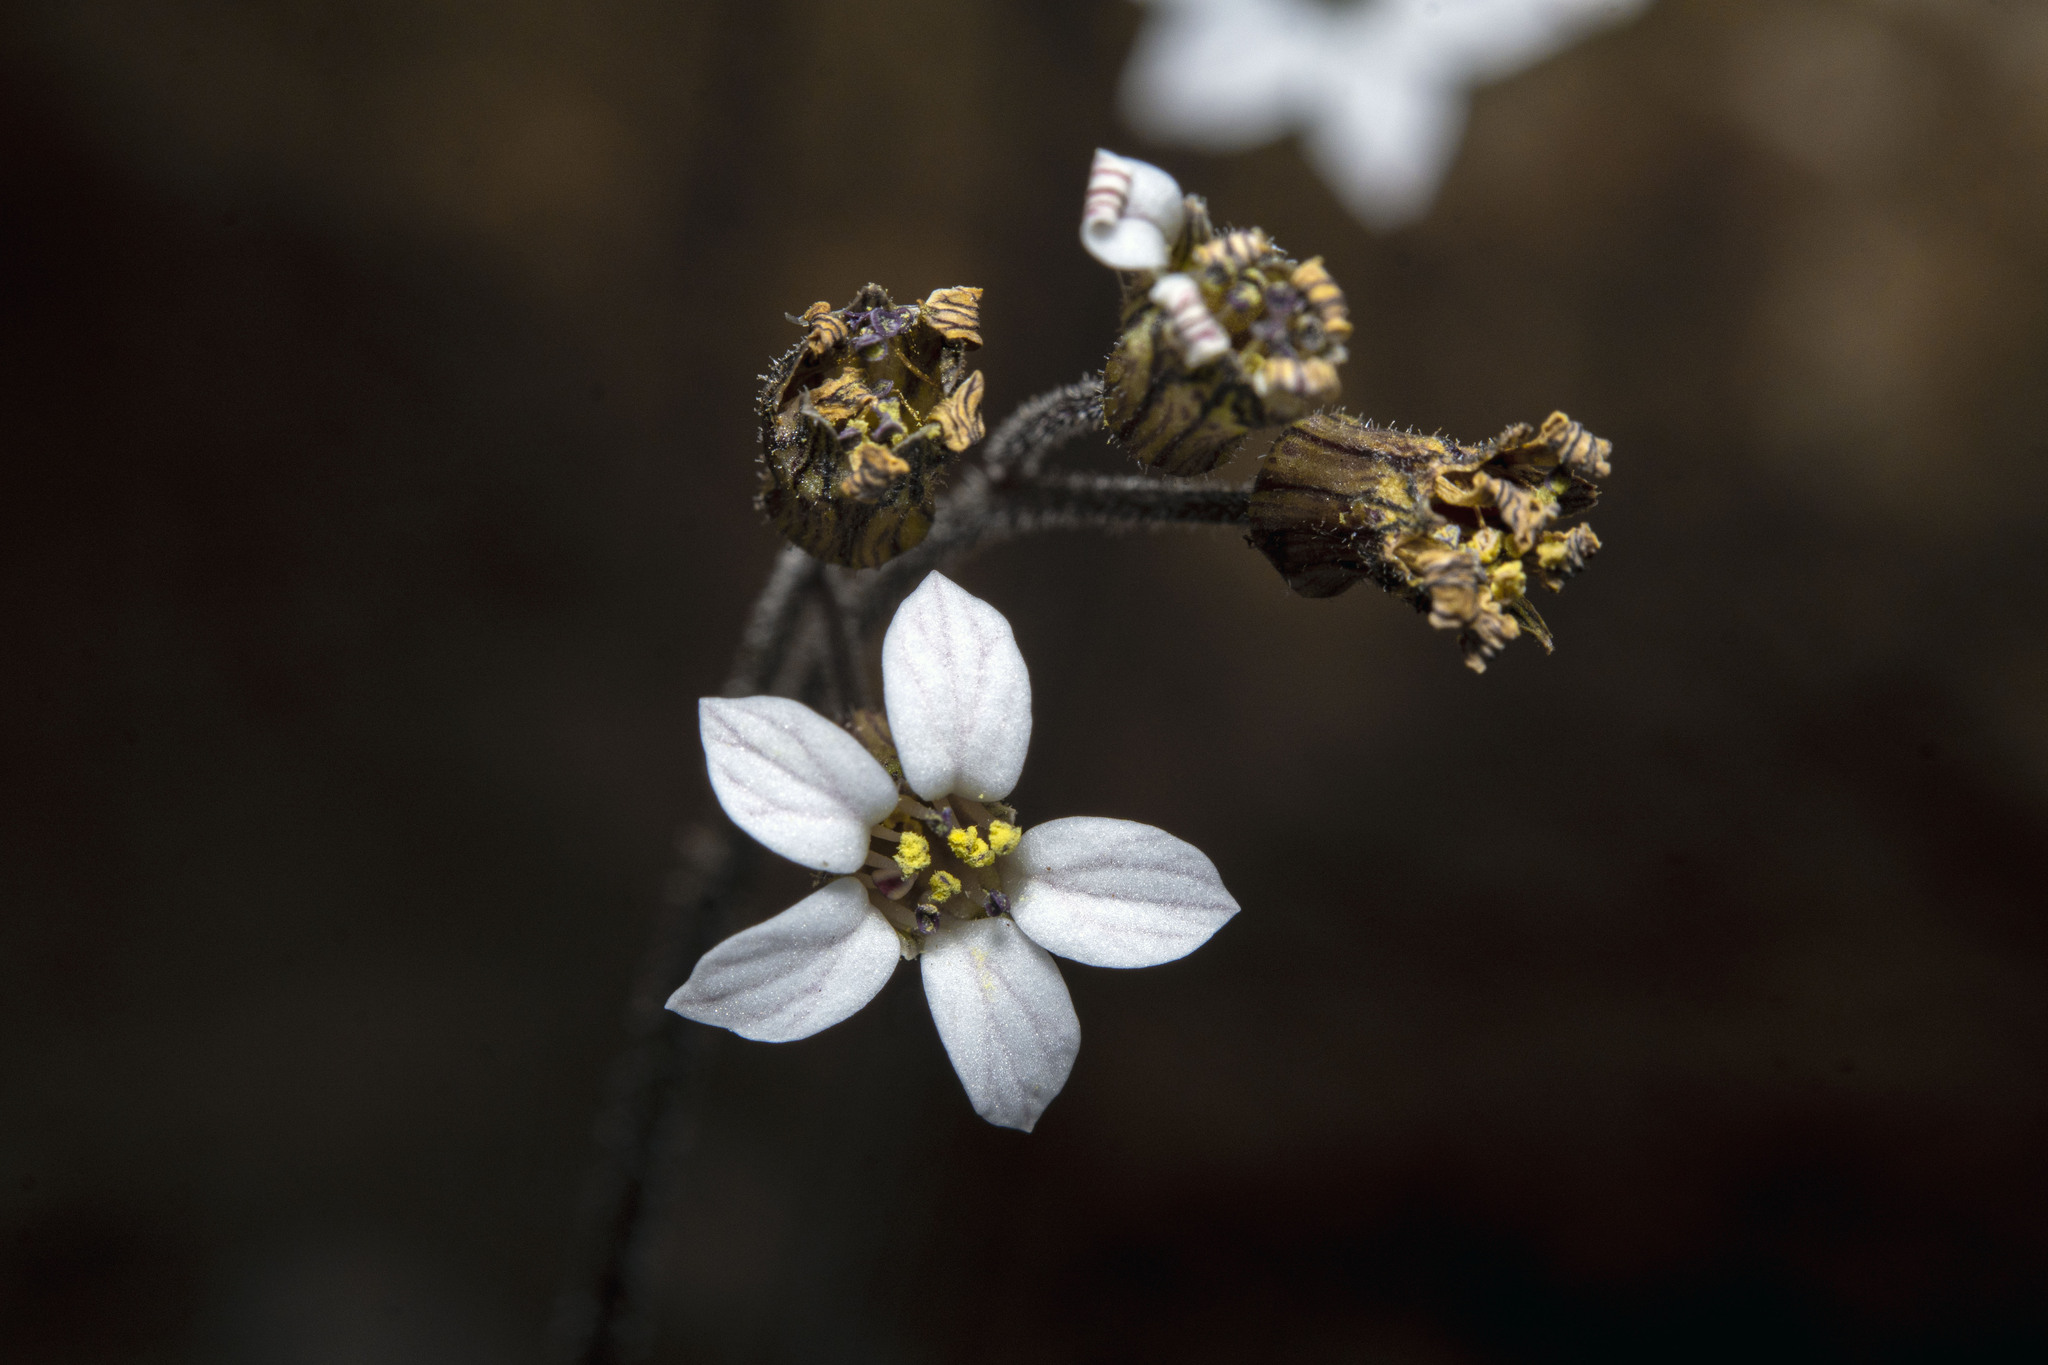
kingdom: Plantae
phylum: Tracheophyta
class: Magnoliopsida
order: Saxifragales
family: Saxifragaceae
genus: Jepsonia
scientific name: Jepsonia parryi
